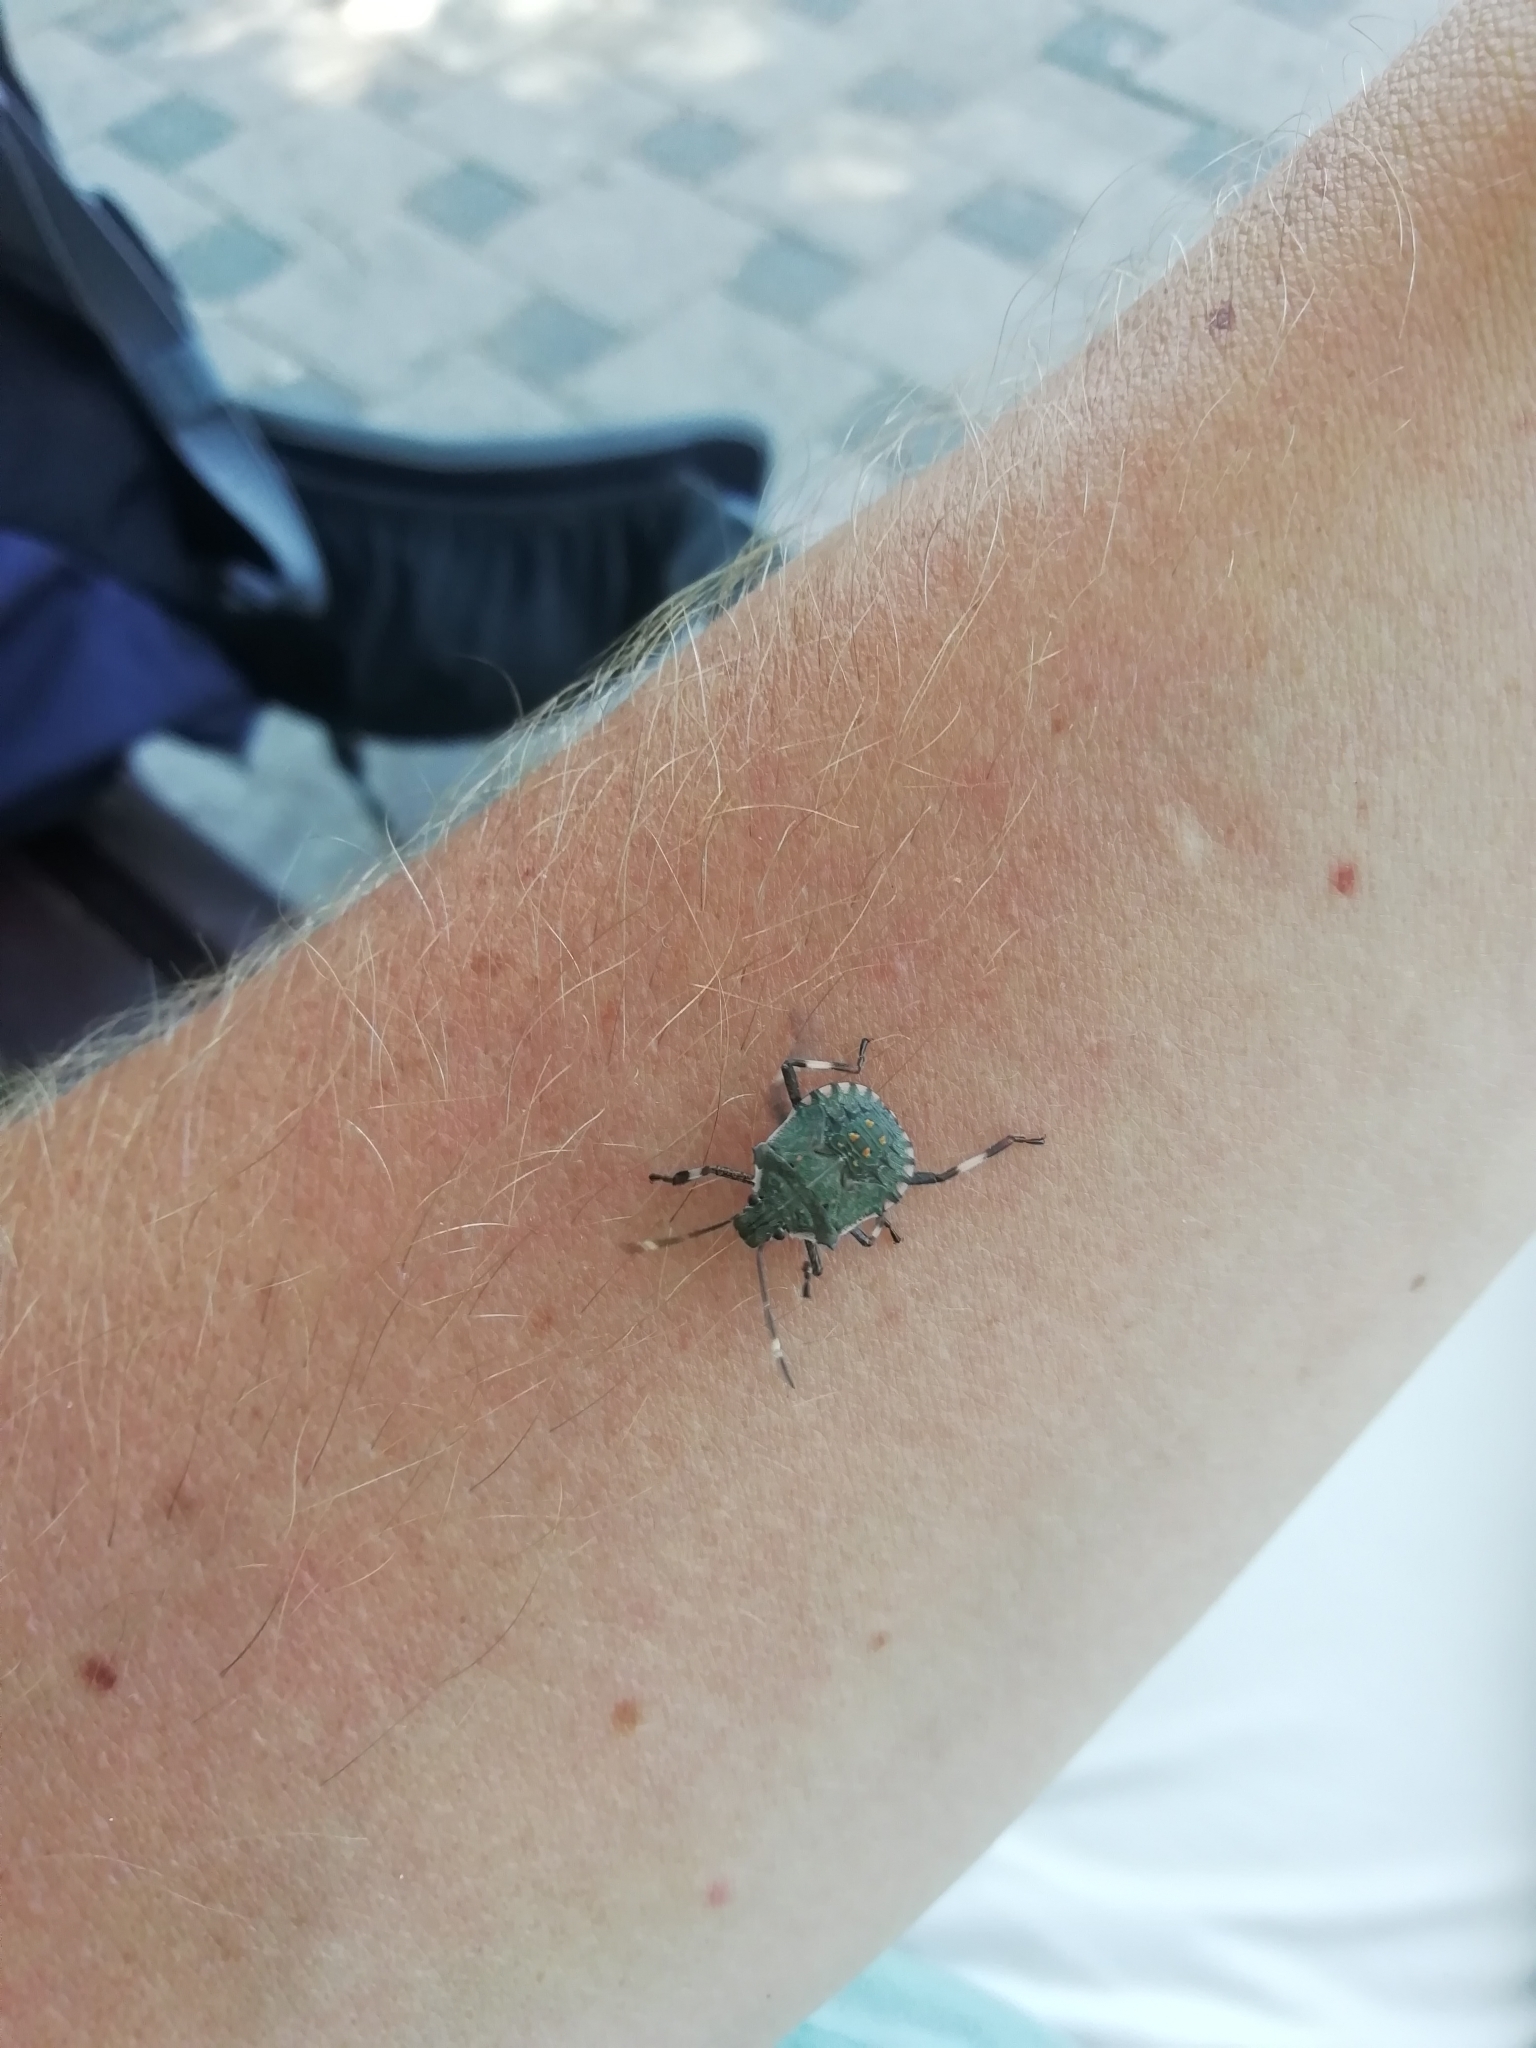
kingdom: Animalia
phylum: Arthropoda
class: Insecta
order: Hemiptera
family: Pentatomidae
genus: Halyomorpha
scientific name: Halyomorpha halys
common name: Brown marmorated stink bug
